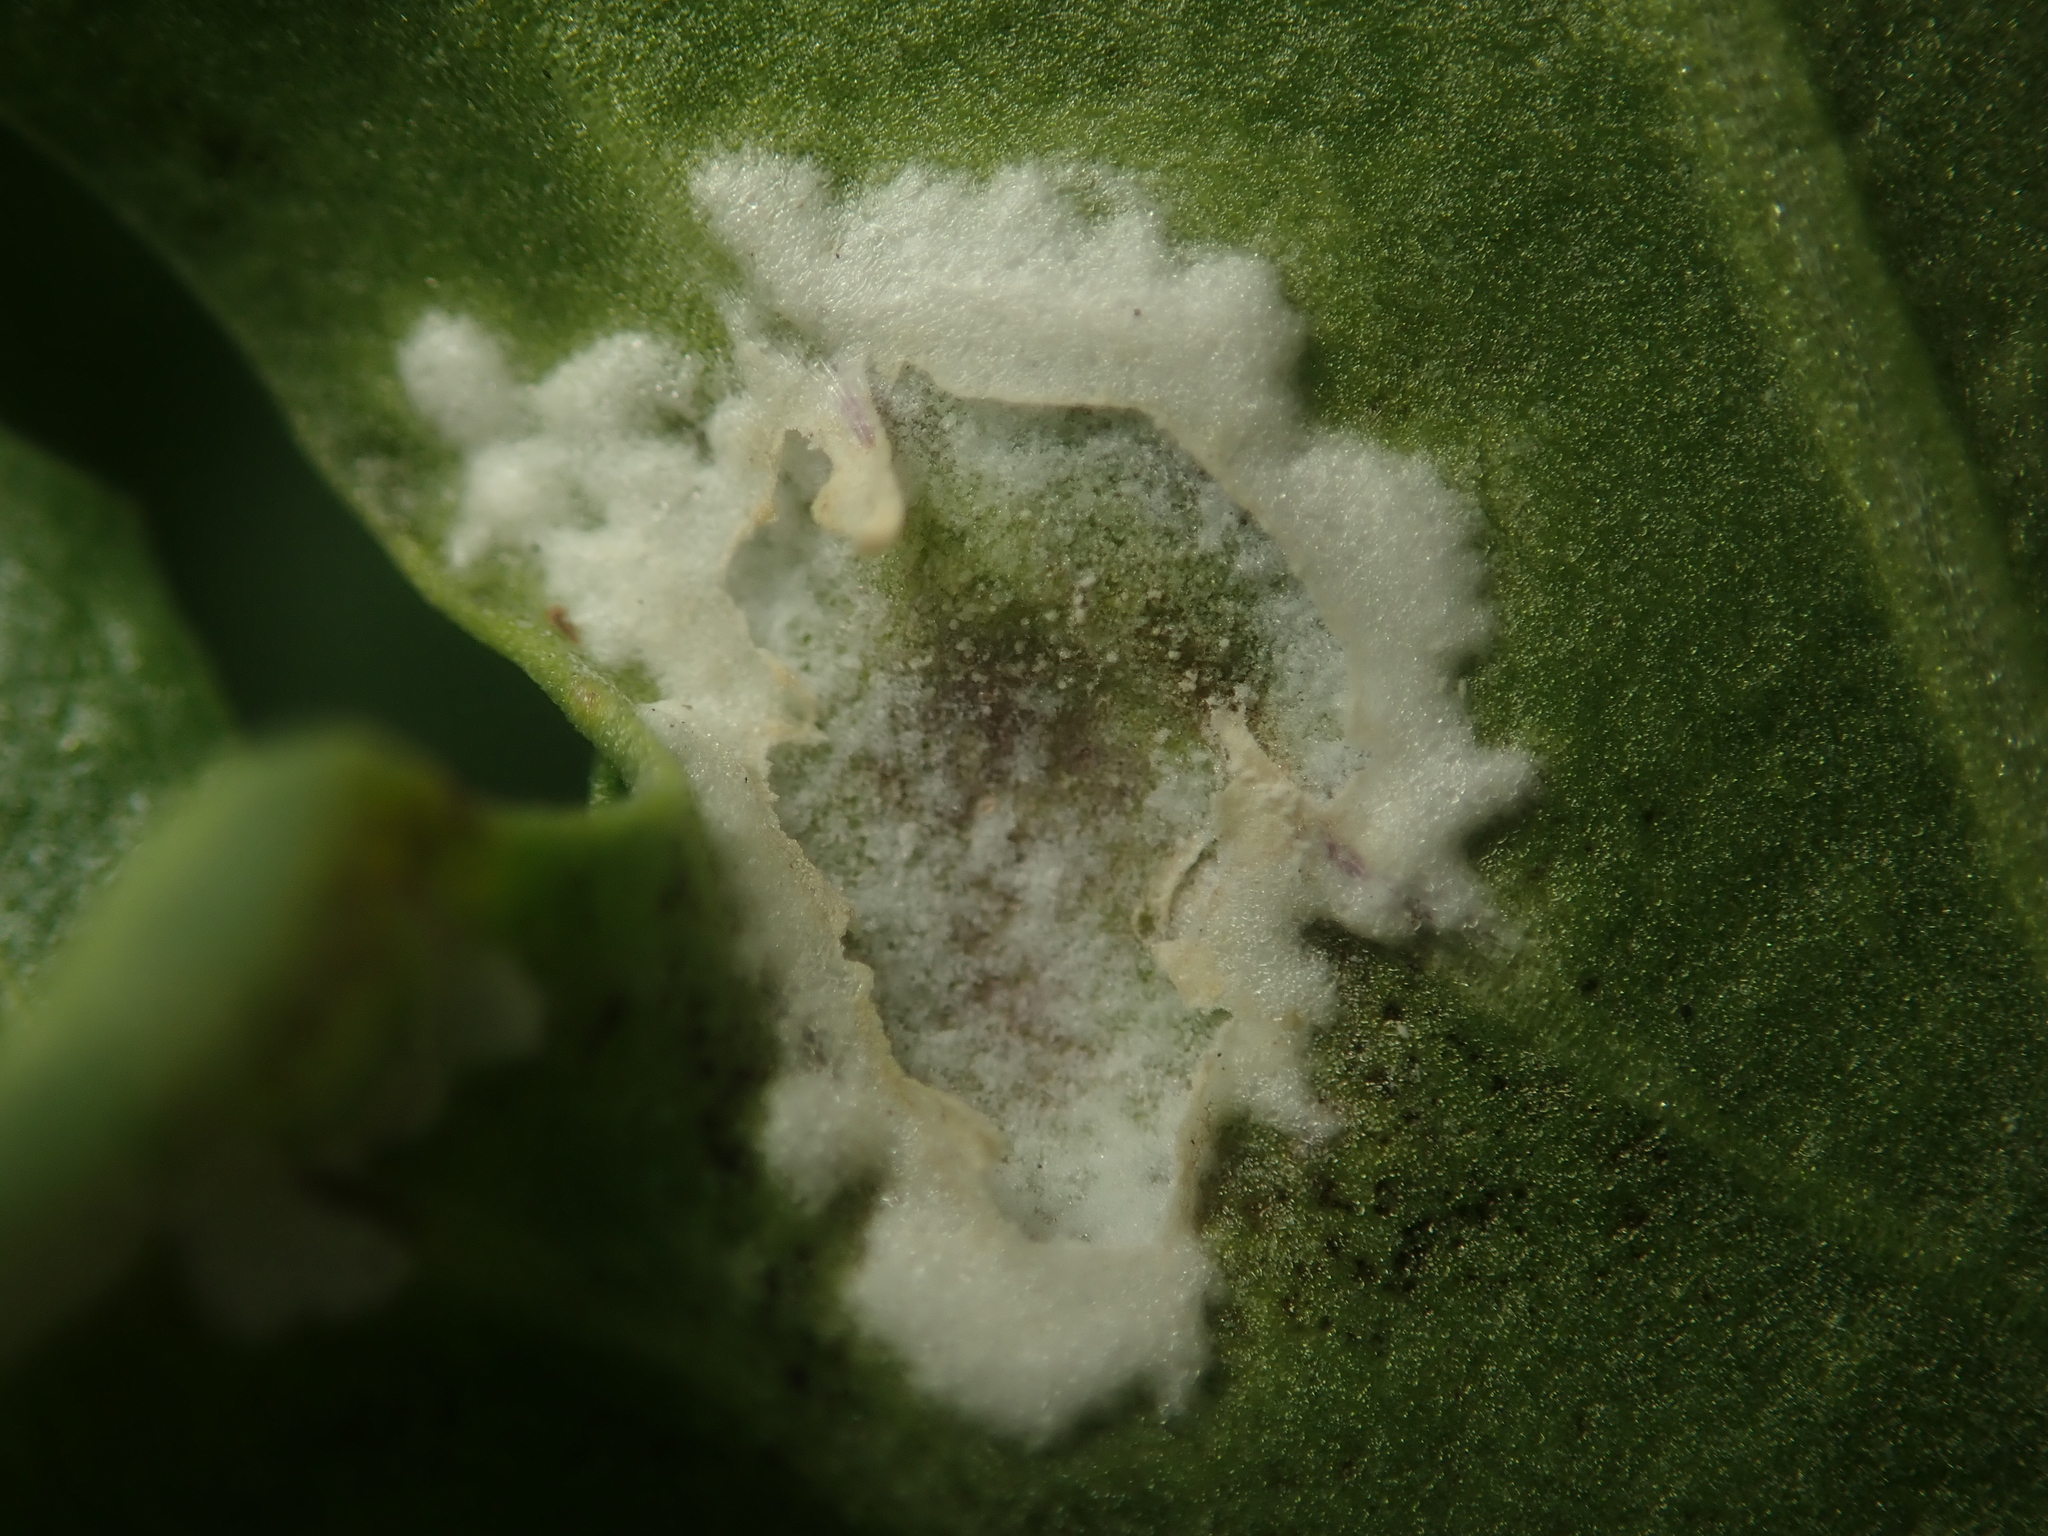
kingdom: Chromista
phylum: Oomycota
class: Peronosporea
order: Albuginales
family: Albuginaceae
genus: Albugo
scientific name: Albugo candida
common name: Crucifer white blister
